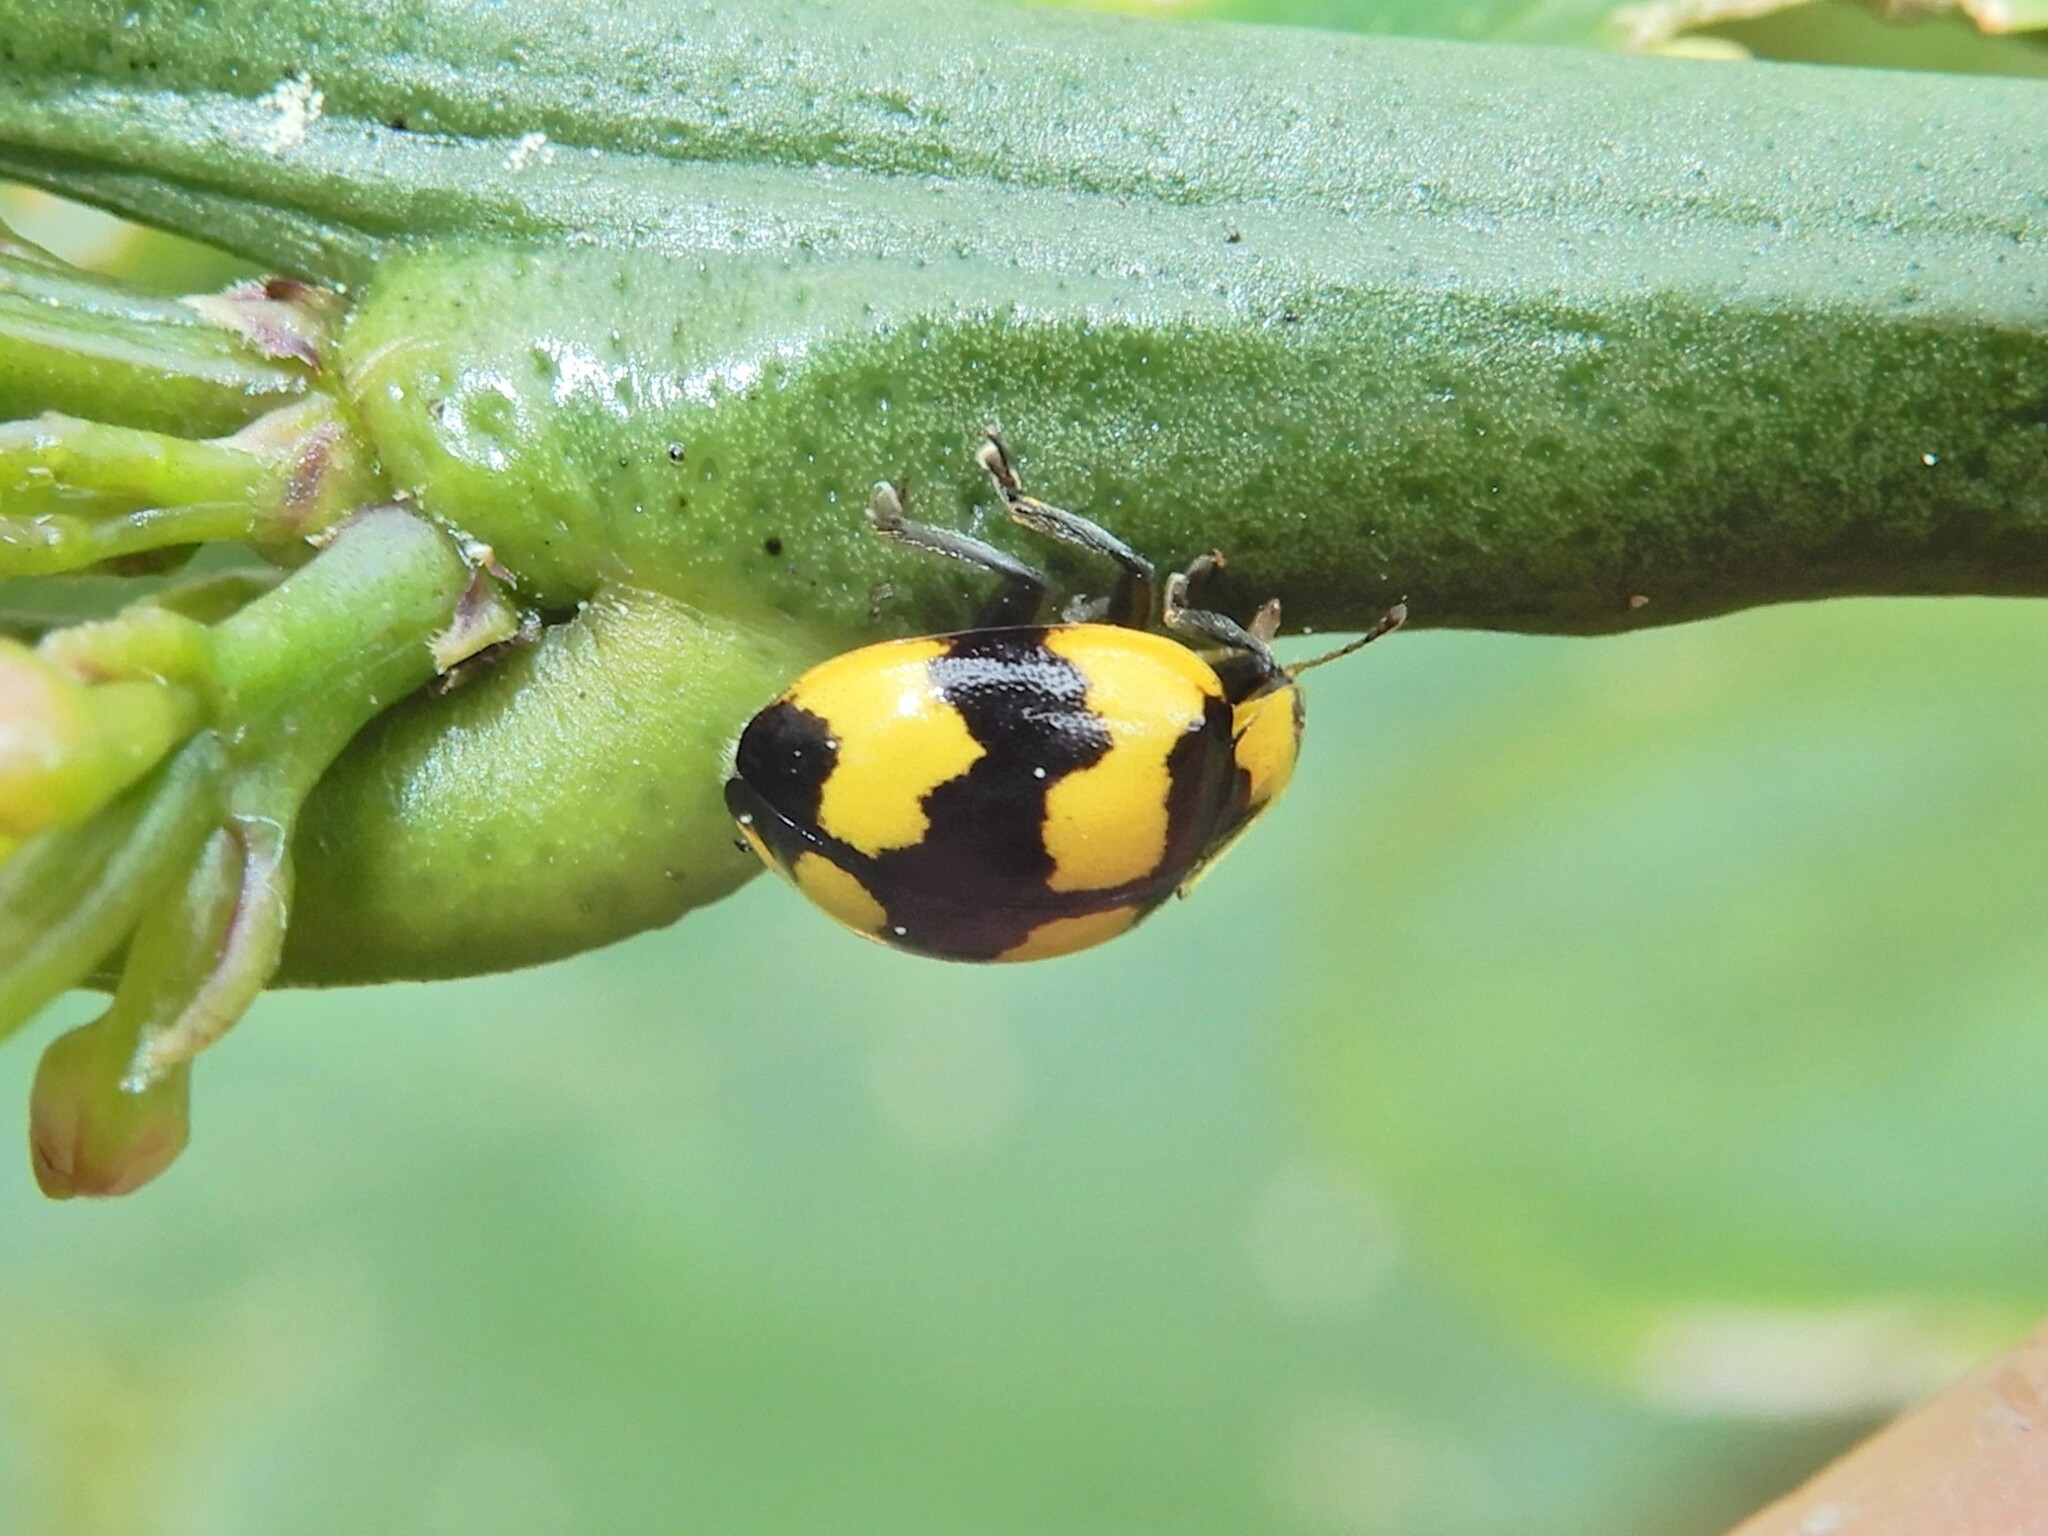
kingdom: Animalia
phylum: Arthropoda
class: Insecta
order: Coleoptera
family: Coccinellidae
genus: Illeis
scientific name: Illeis galbula
